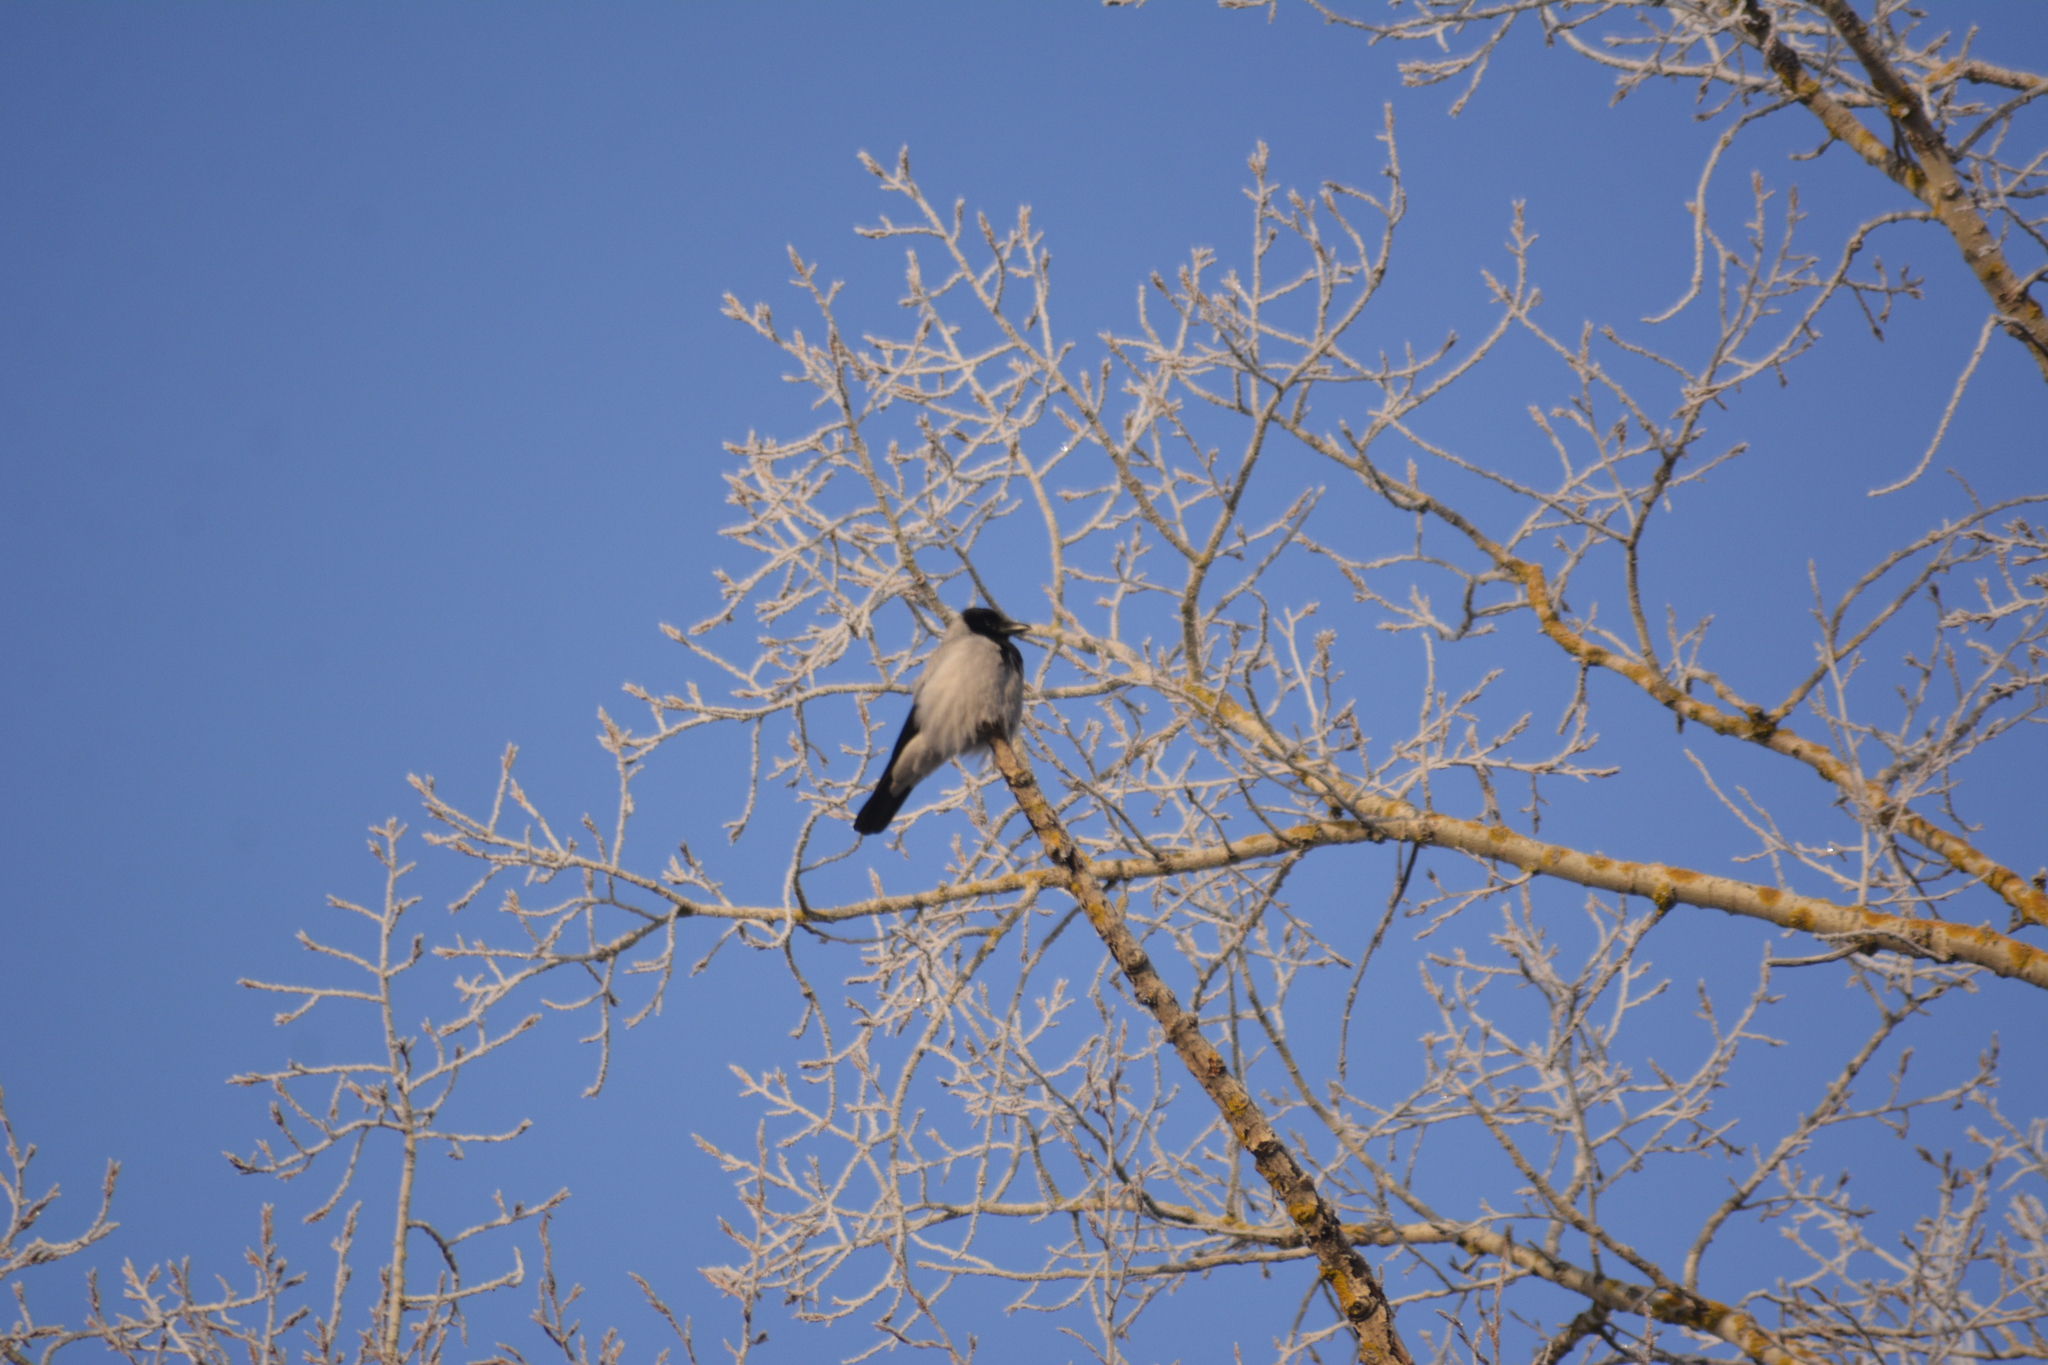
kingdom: Animalia
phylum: Chordata
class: Aves
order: Passeriformes
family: Corvidae
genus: Corvus
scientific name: Corvus cornix
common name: Hooded crow
